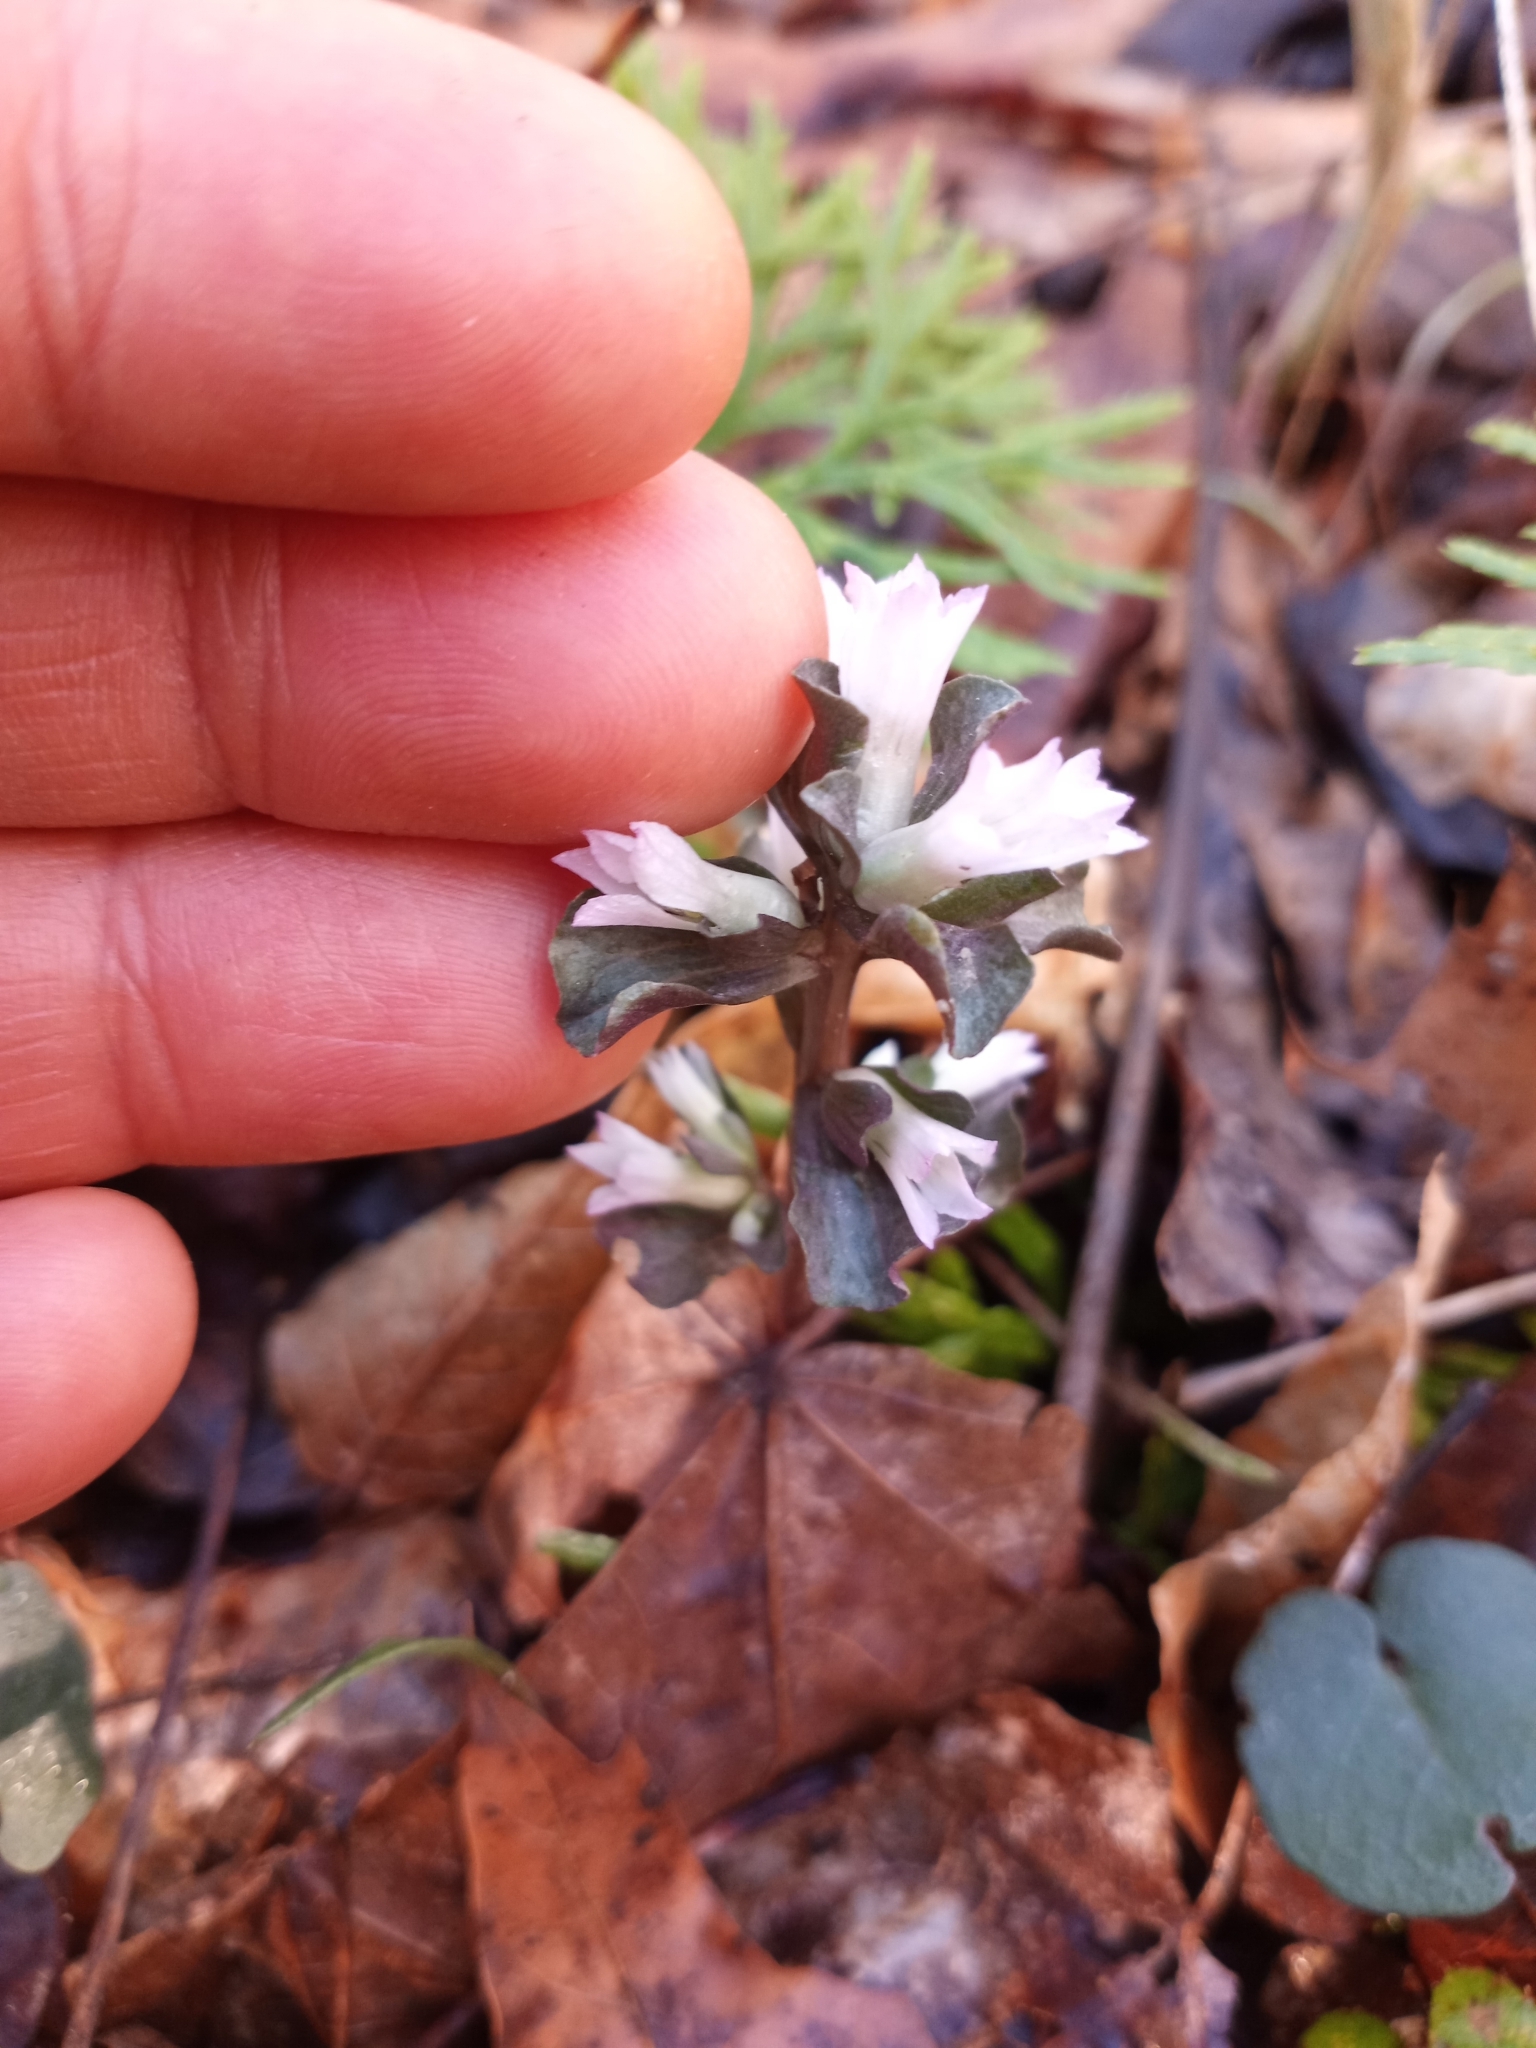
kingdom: Plantae
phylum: Tracheophyta
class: Magnoliopsida
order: Gentianales
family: Gentianaceae
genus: Obolaria
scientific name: Obolaria virginica
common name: Pennywort
